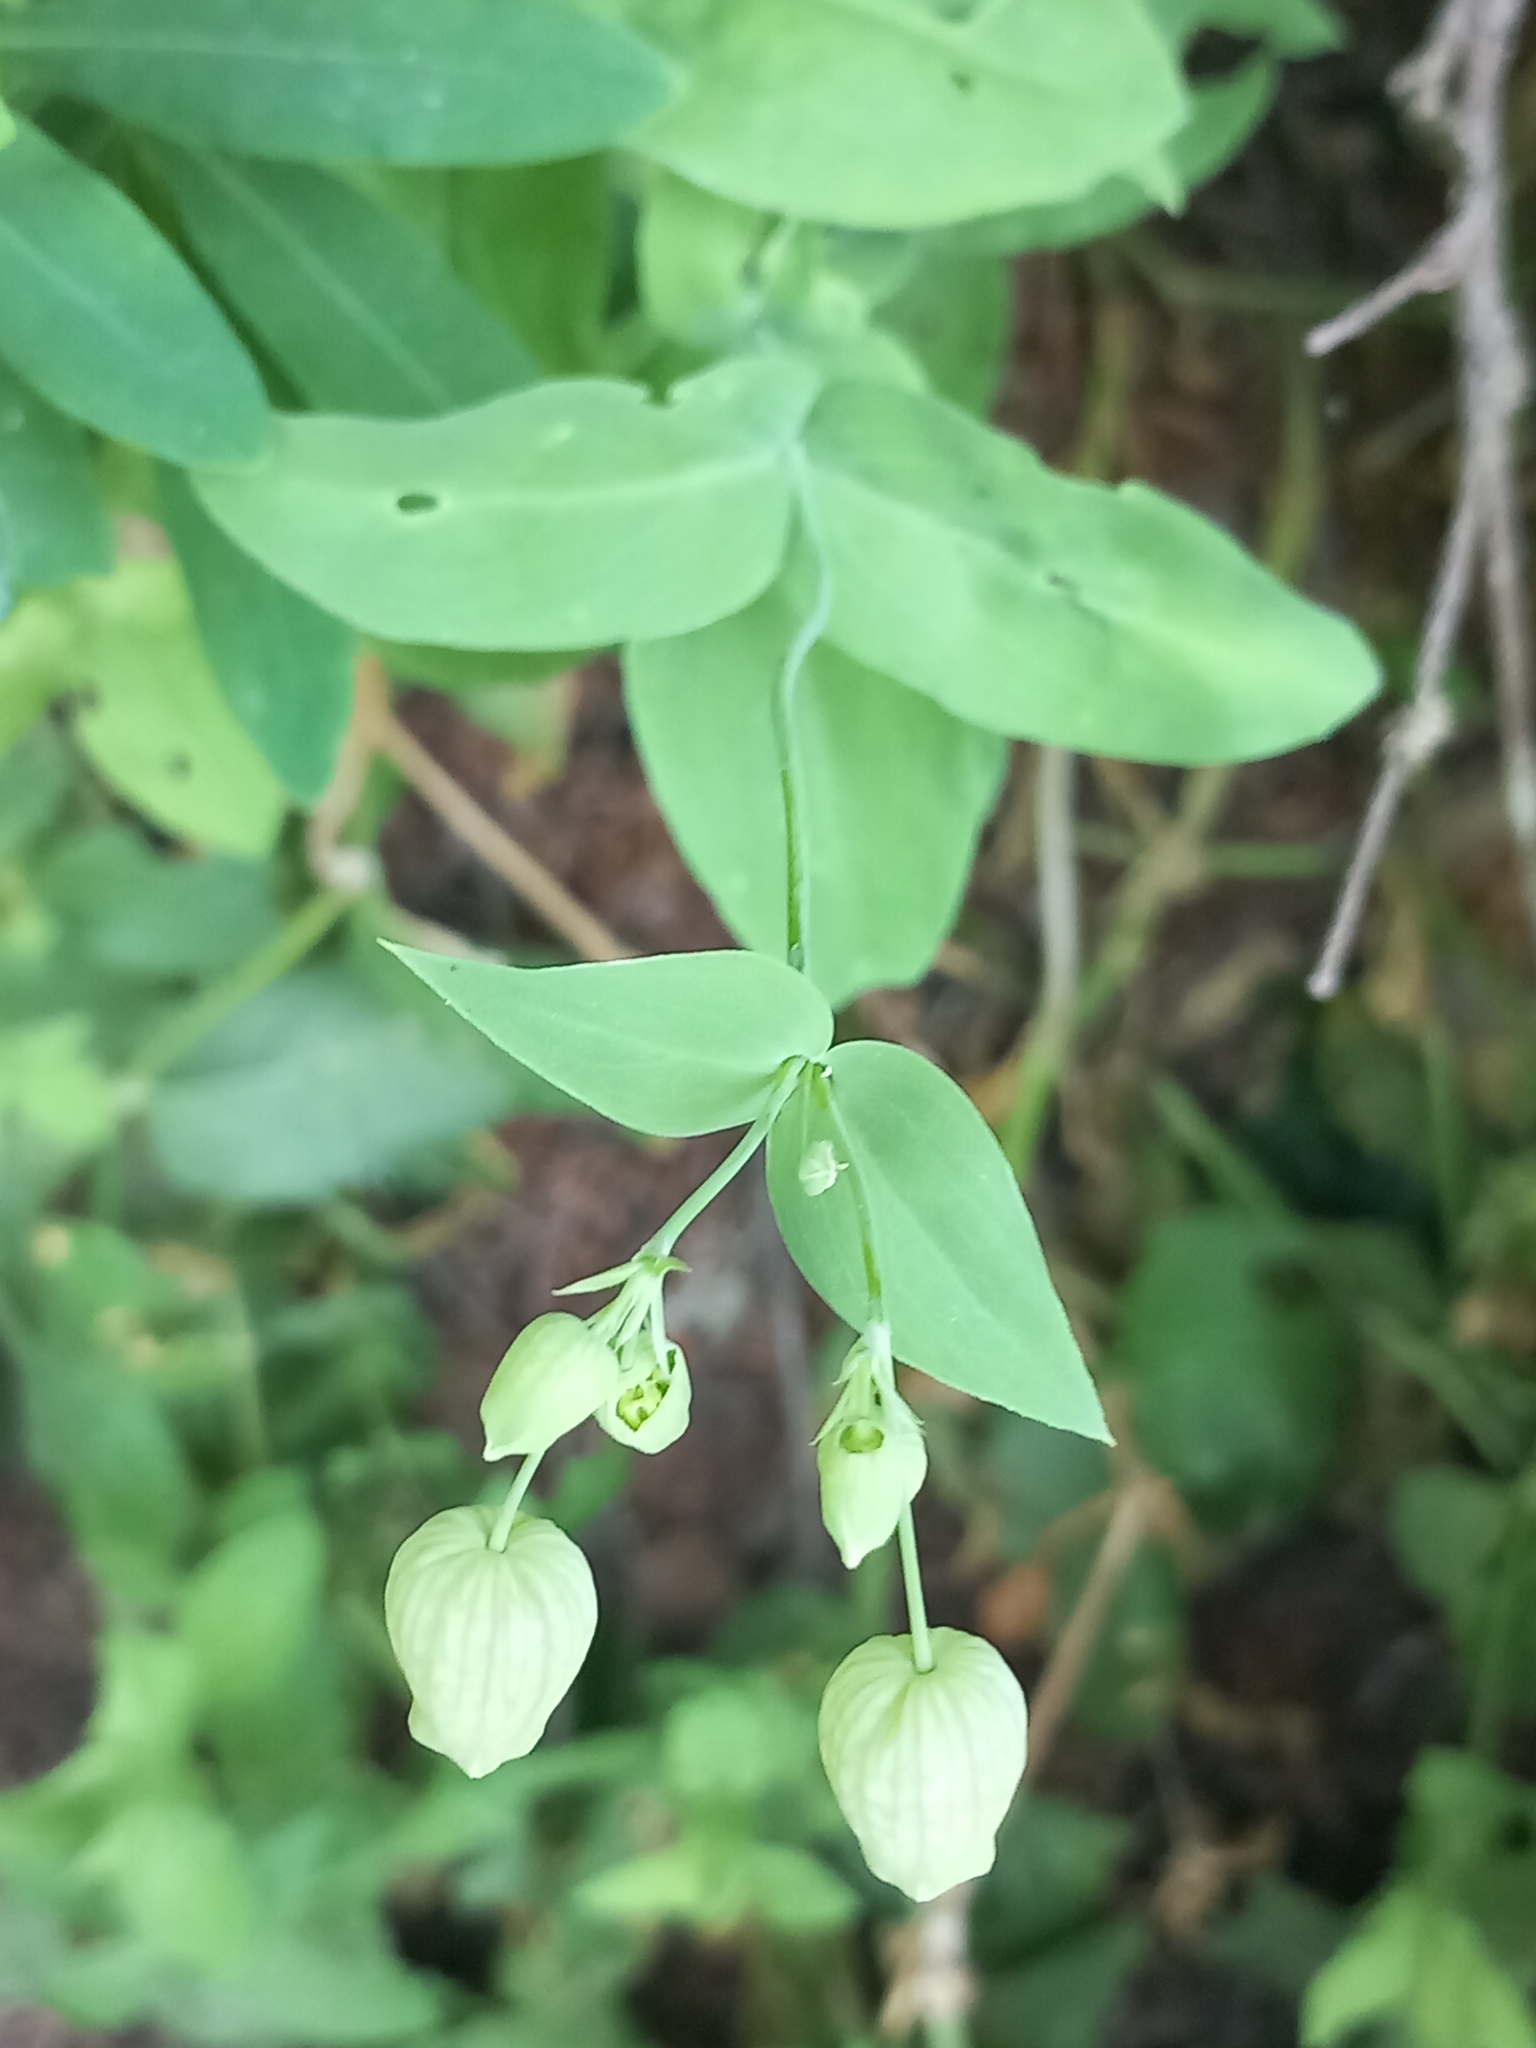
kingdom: Plantae
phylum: Tracheophyta
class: Magnoliopsida
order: Caryophyllales
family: Caryophyllaceae
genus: Silene
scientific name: Silene vulgaris
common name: Bladder campion
